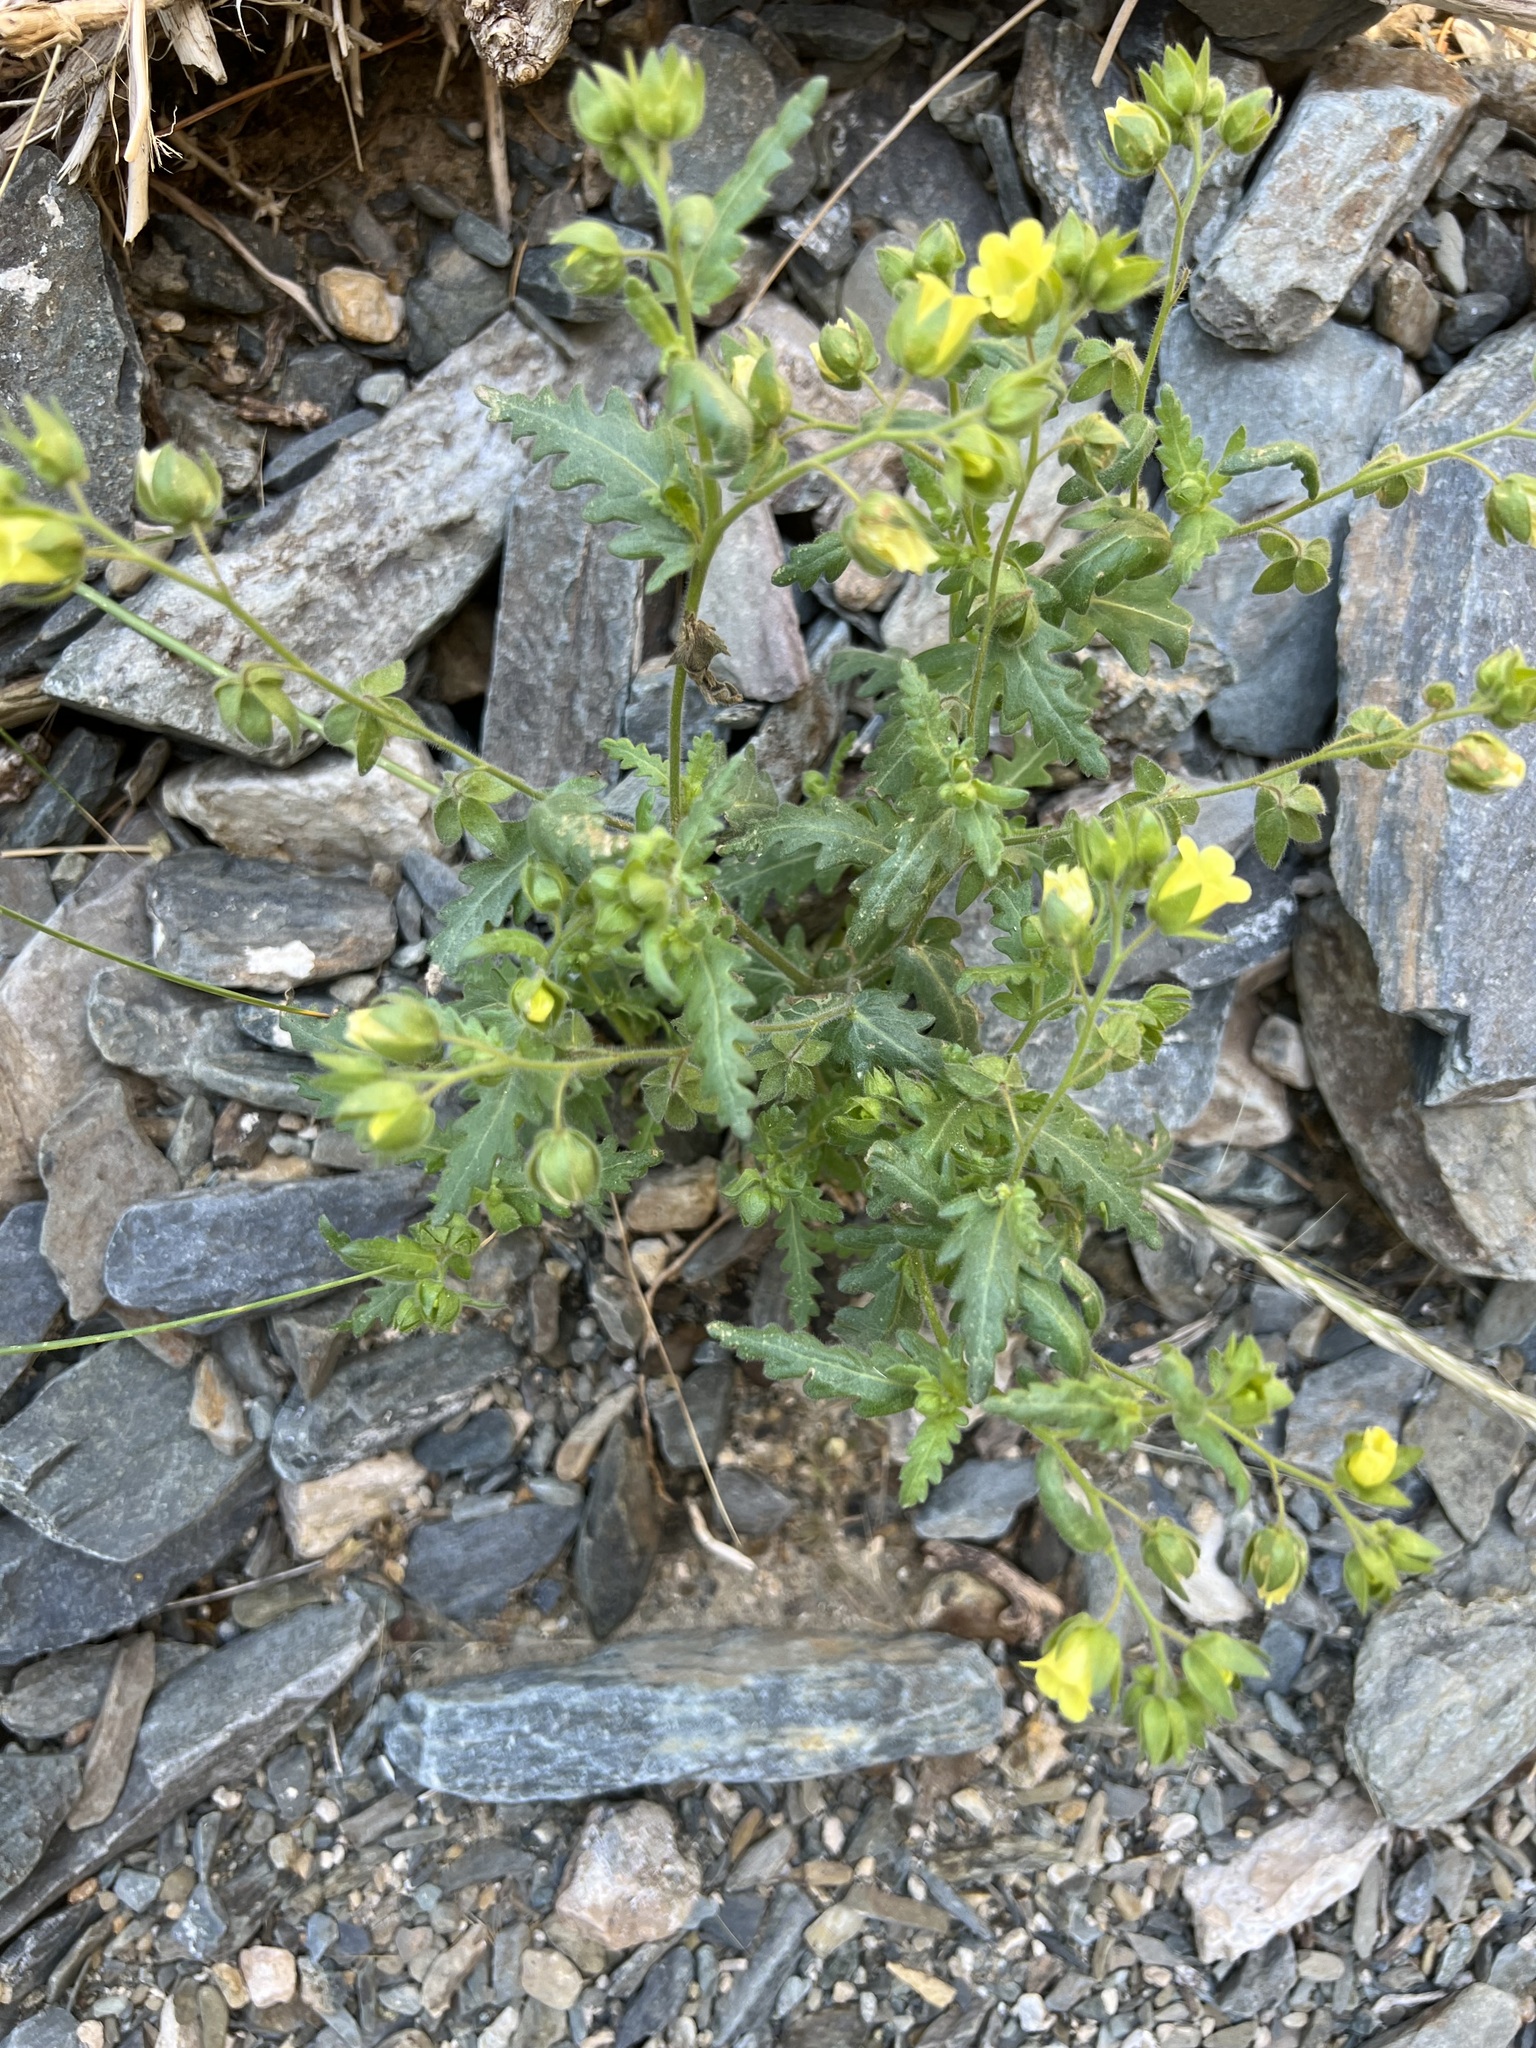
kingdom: Plantae
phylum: Tracheophyta
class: Magnoliopsida
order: Boraginales
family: Hydrophyllaceae
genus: Emmenanthe
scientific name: Emmenanthe penduliflora
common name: Whispering-bells
